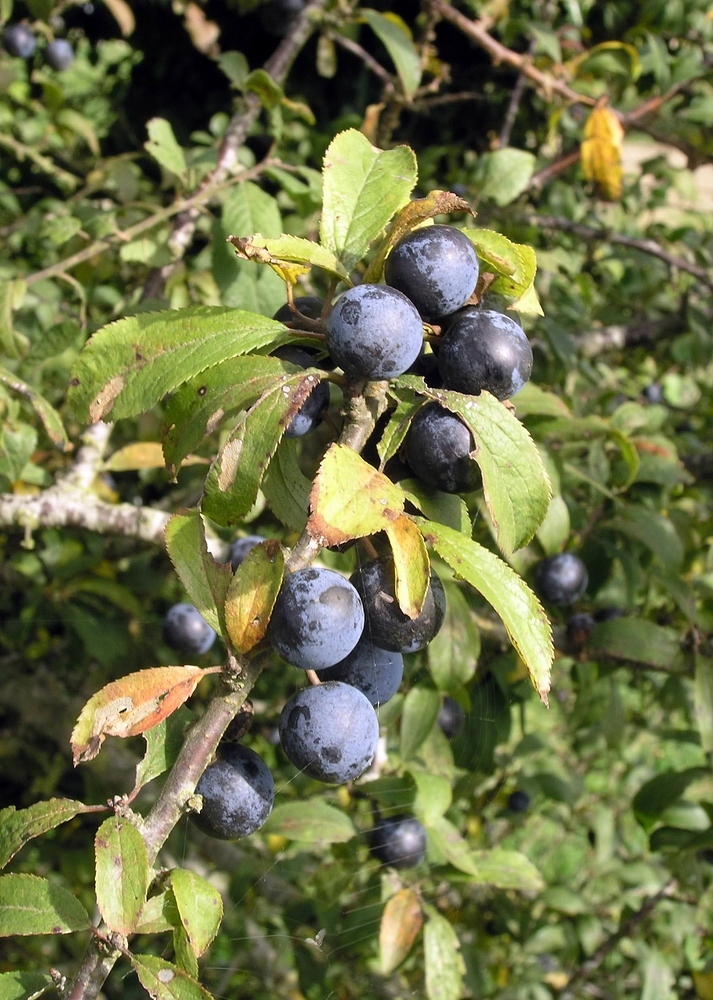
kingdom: Plantae
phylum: Tracheophyta
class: Magnoliopsida
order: Rosales
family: Rosaceae
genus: Prunus
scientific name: Prunus spinosa
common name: Blackthorn
